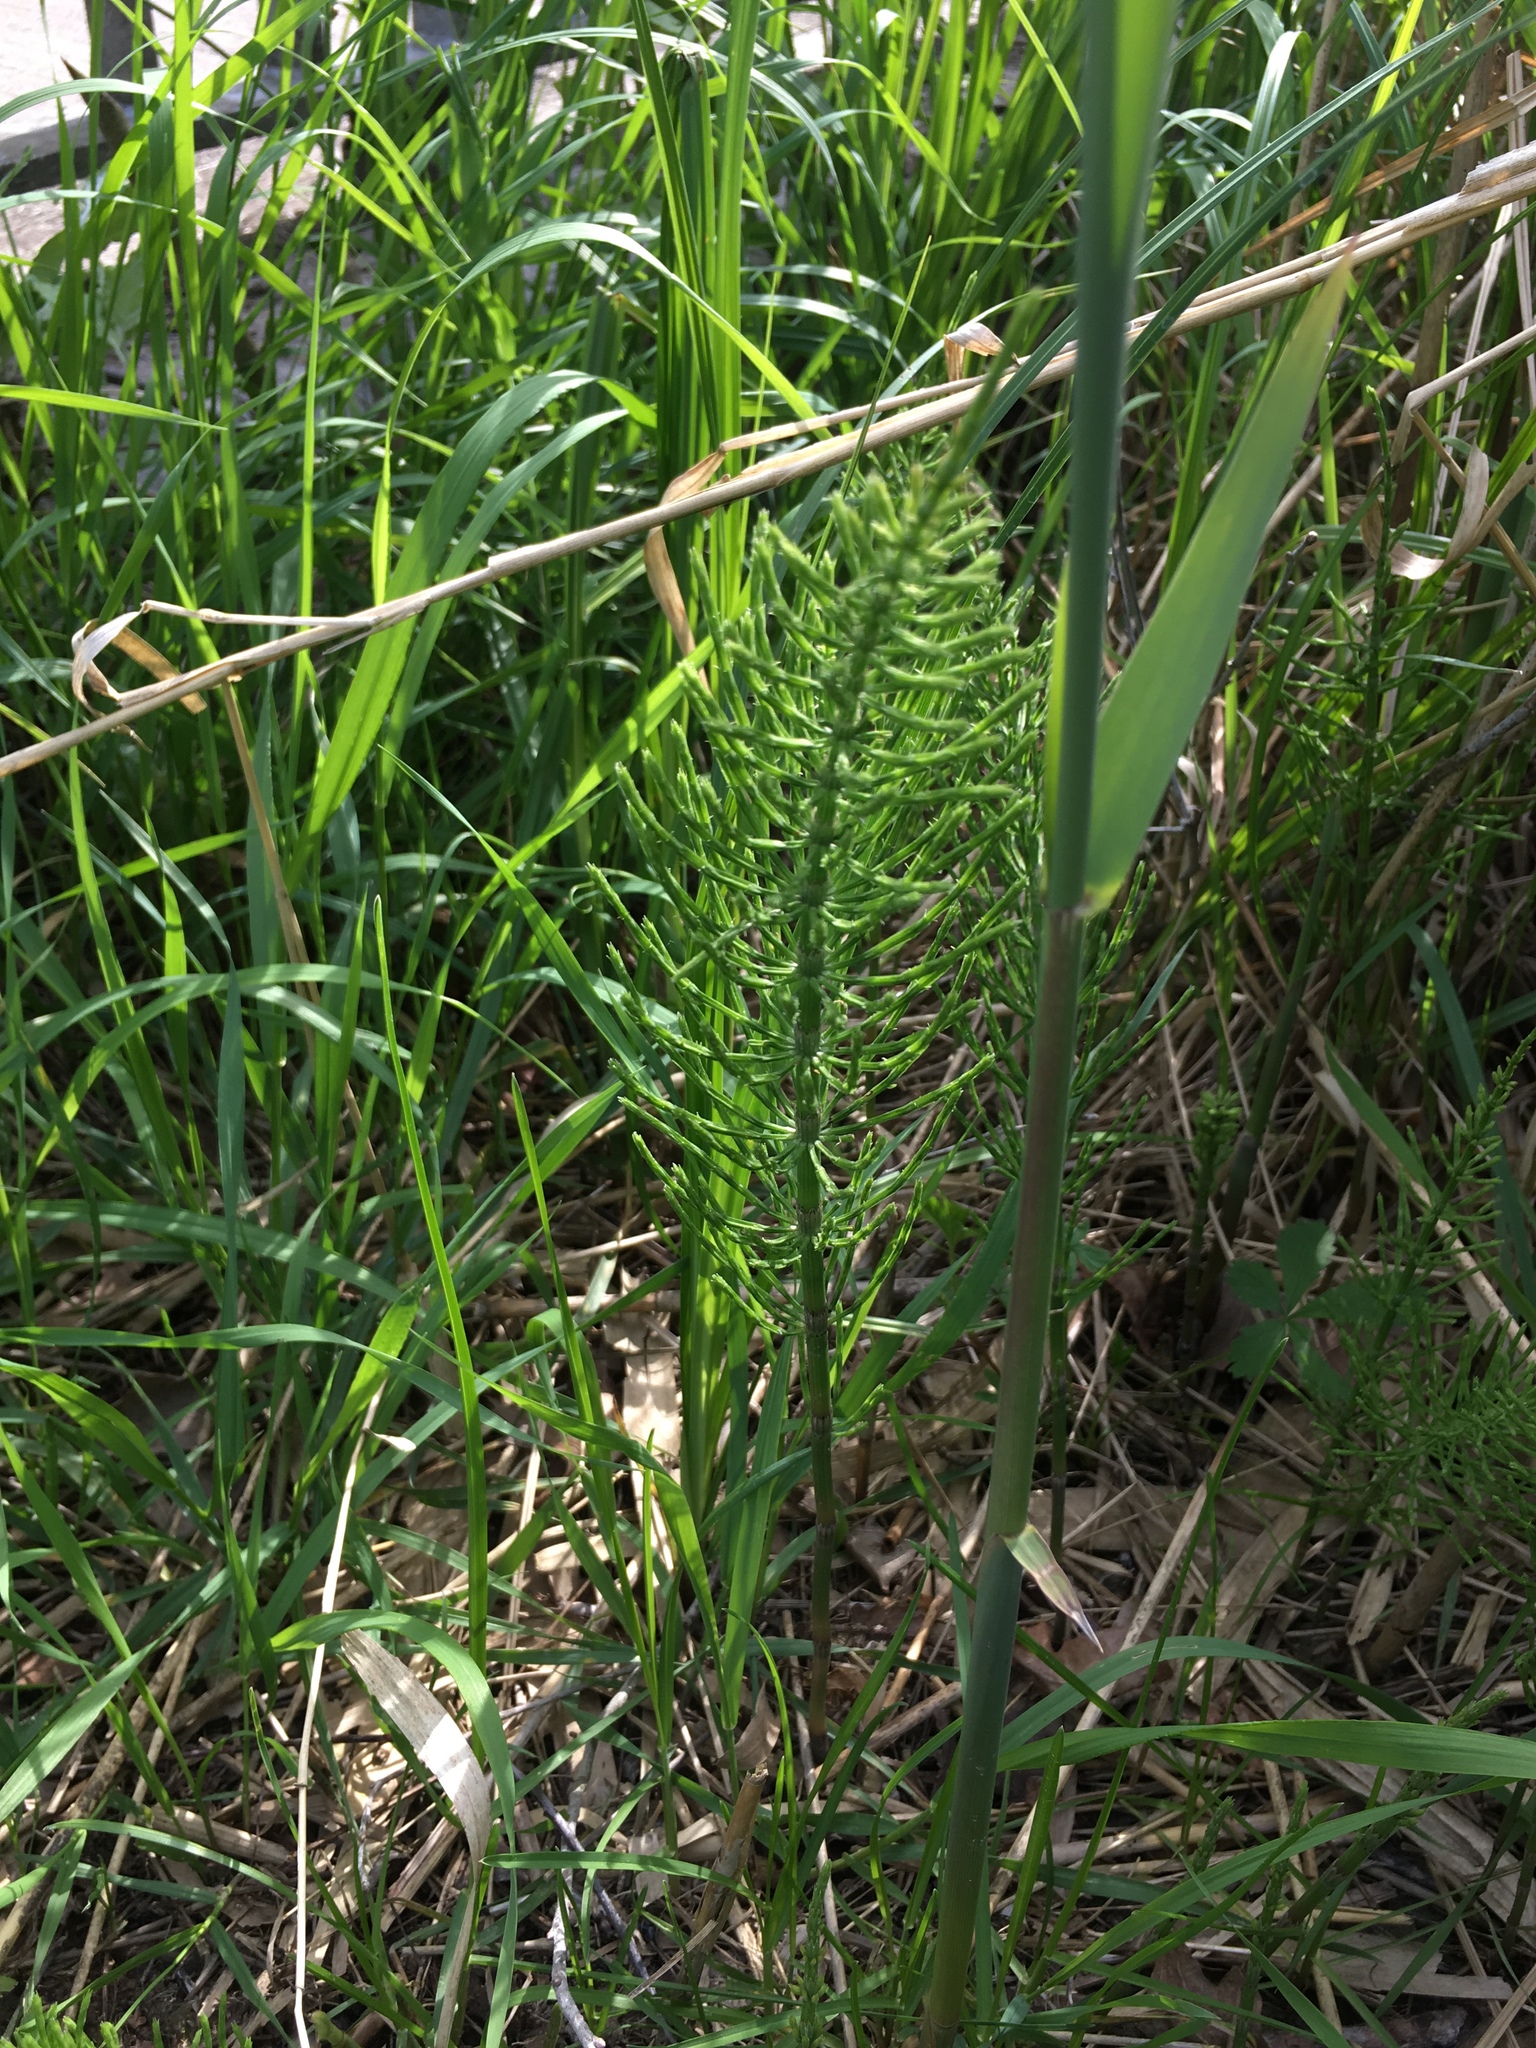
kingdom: Plantae
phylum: Tracheophyta
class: Polypodiopsida
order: Equisetales
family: Equisetaceae
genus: Equisetum
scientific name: Equisetum arvense
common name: Field horsetail
